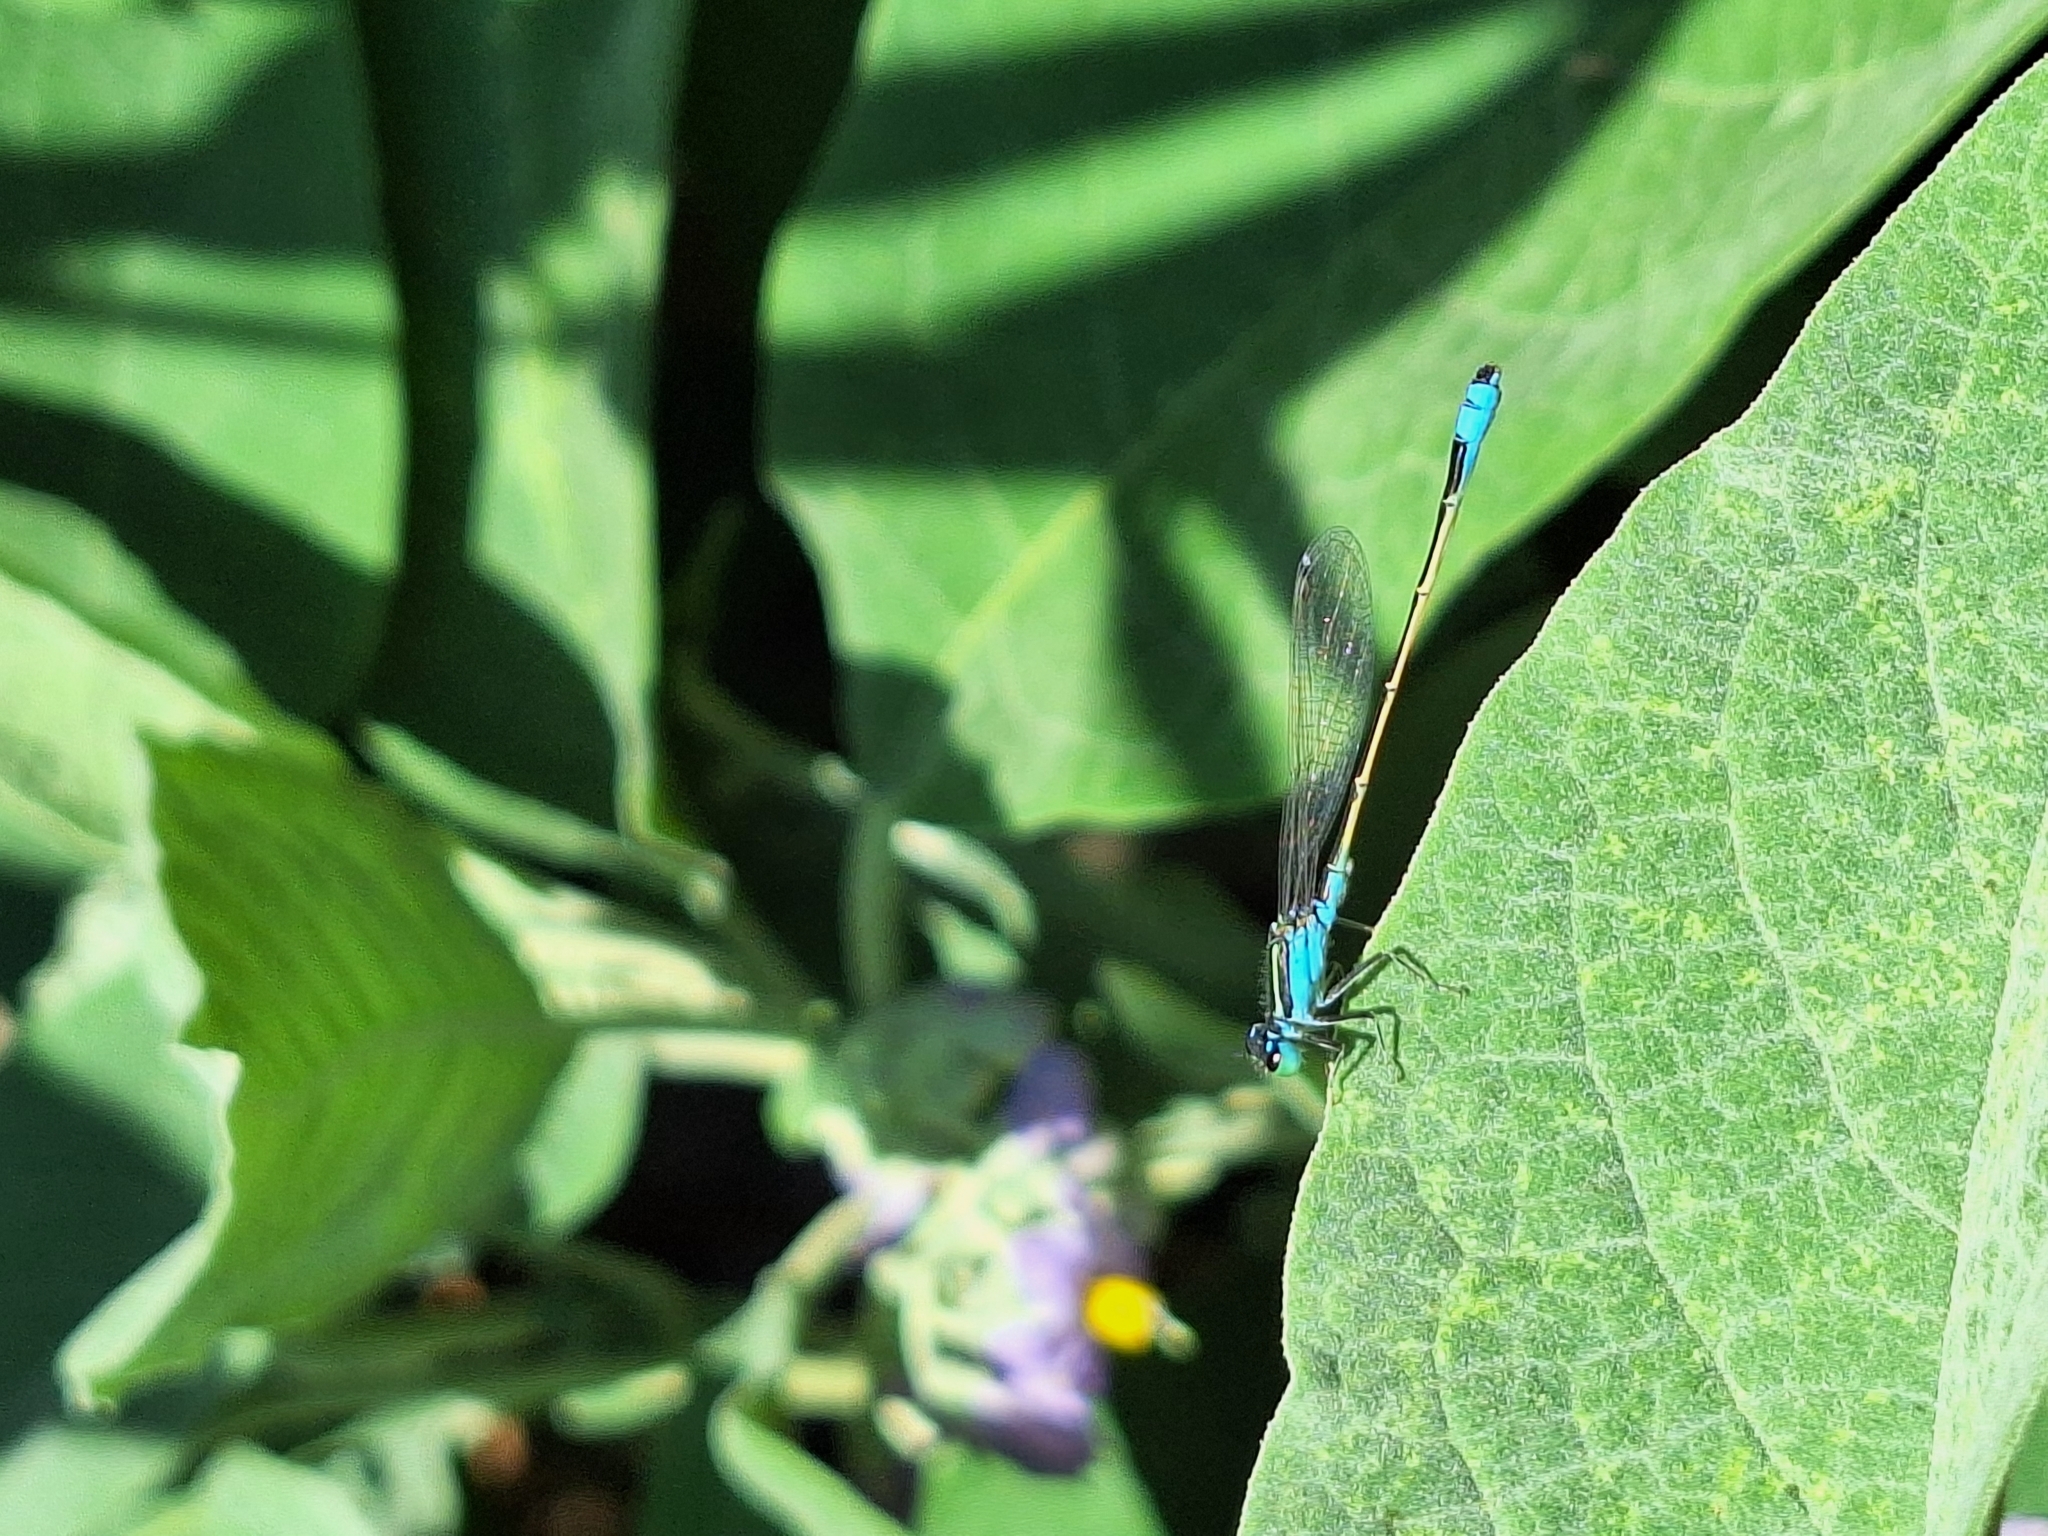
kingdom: Animalia
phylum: Arthropoda
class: Insecta
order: Odonata
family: Coenagrionidae
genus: Ischnura
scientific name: Ischnura fluviatilis
